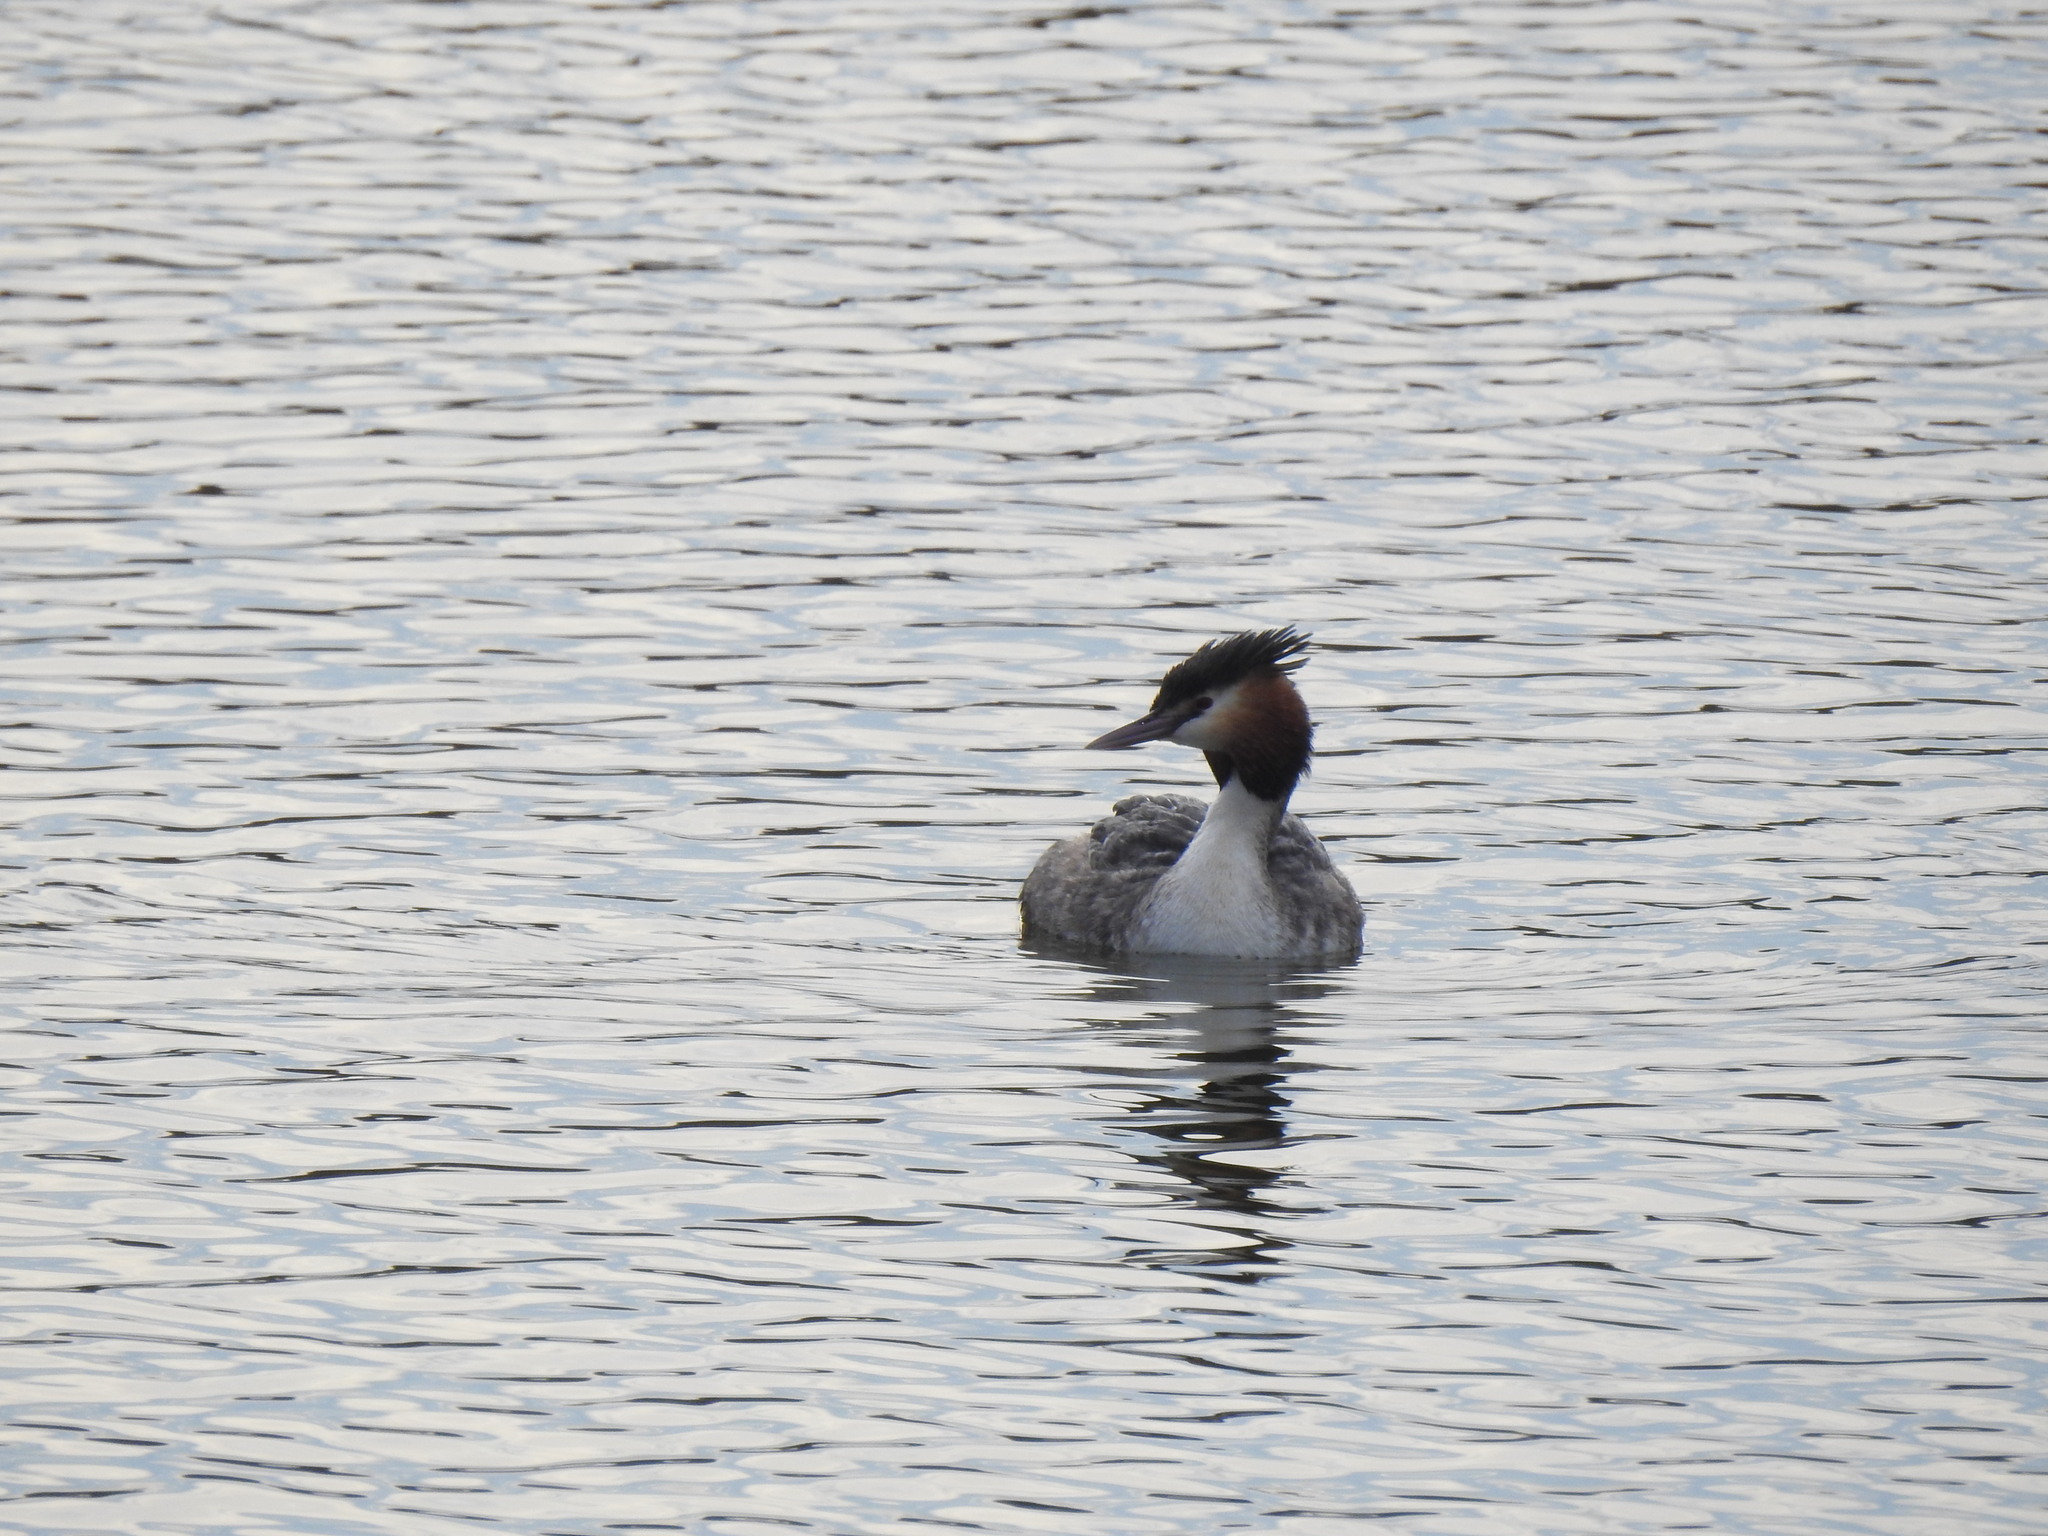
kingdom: Animalia
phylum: Chordata
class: Aves
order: Podicipediformes
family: Podicipedidae
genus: Podiceps
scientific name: Podiceps cristatus
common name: Great crested grebe
